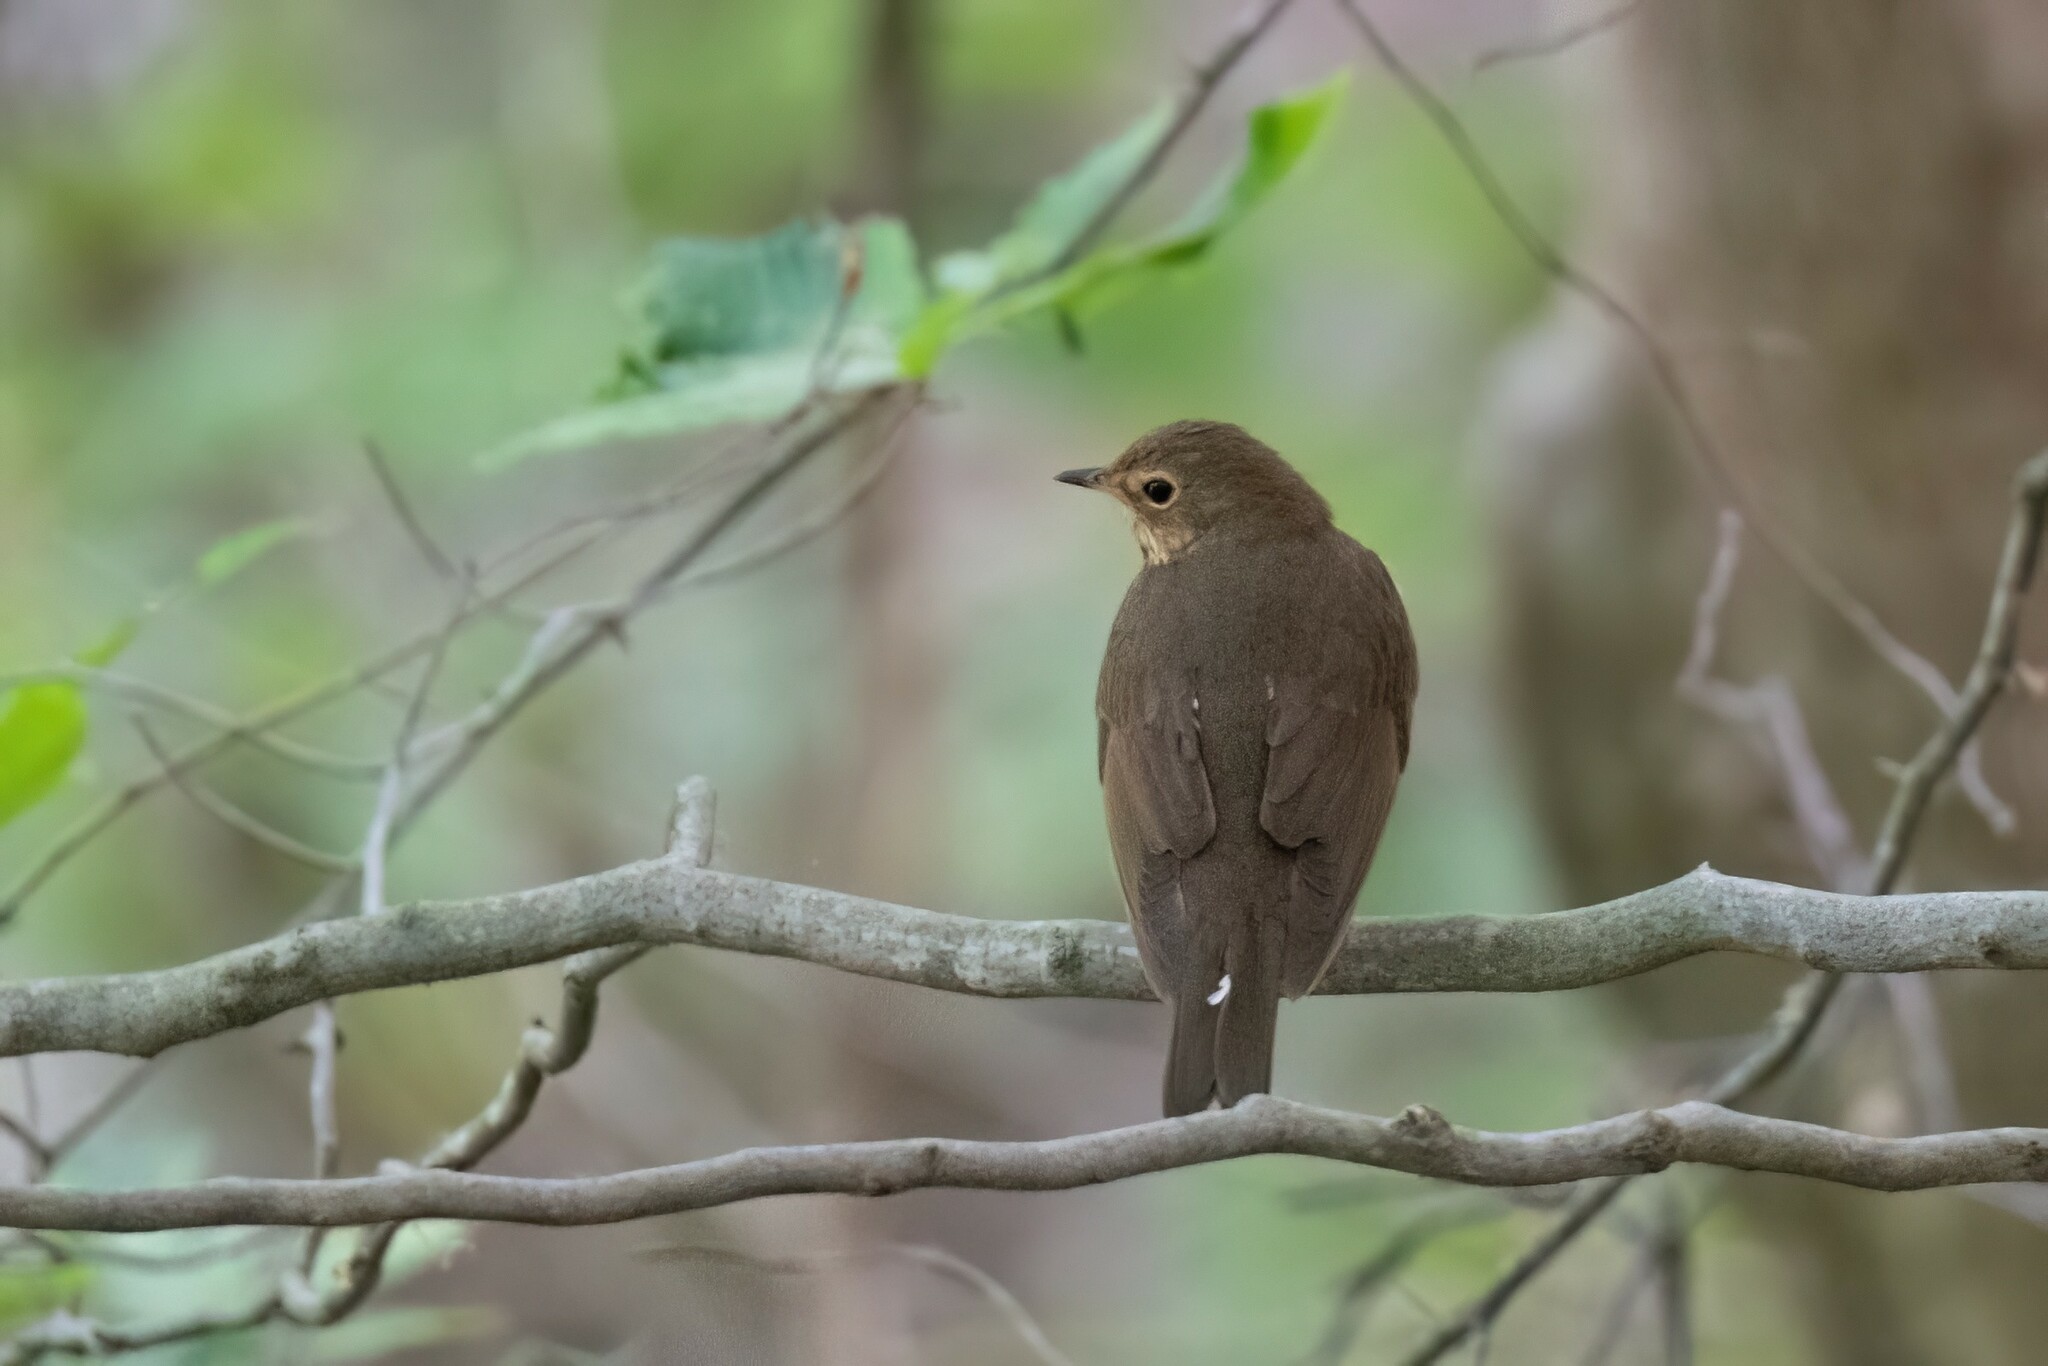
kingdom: Animalia
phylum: Chordata
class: Aves
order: Passeriformes
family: Turdidae
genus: Catharus
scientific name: Catharus ustulatus
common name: Swainson's thrush
